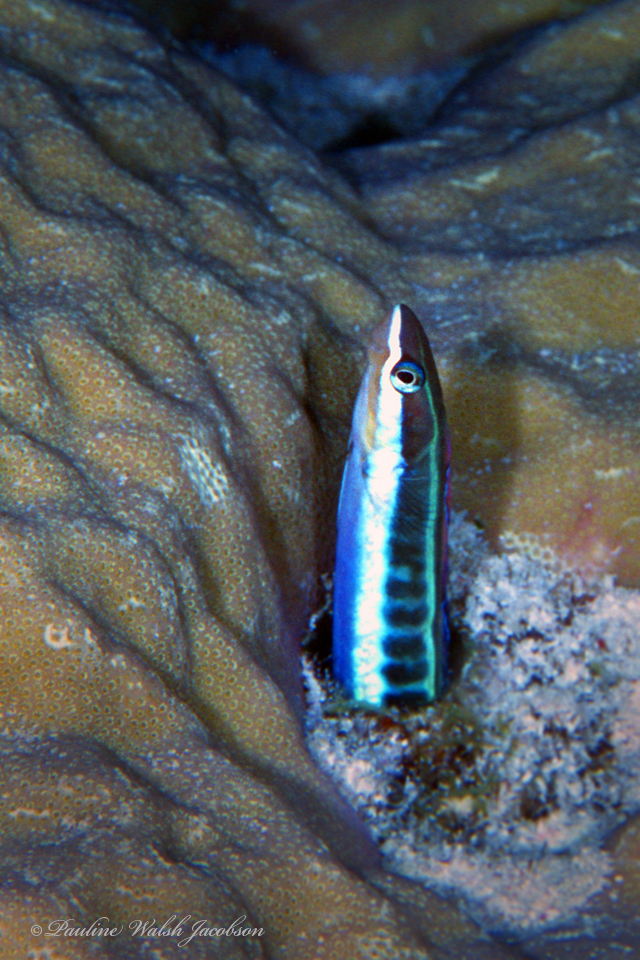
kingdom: Animalia
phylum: Chordata
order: Perciformes
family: Blenniidae
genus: Plagiotremus
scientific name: Plagiotremus tapeinosoma
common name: Hit and run blenny
